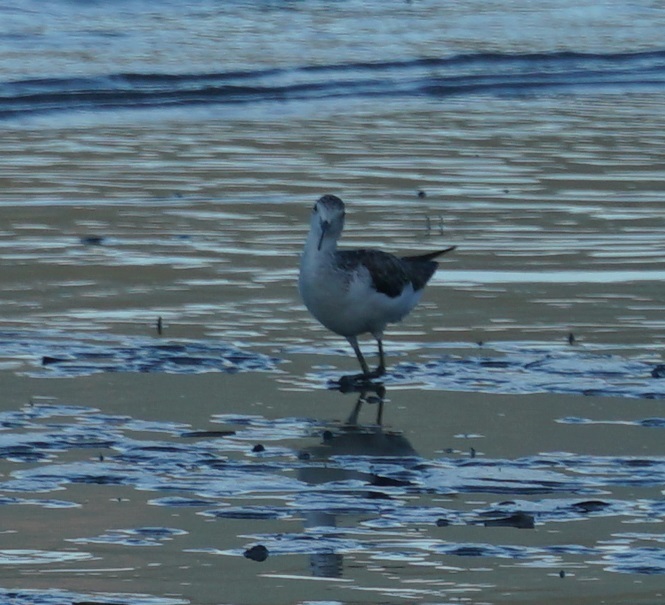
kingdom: Animalia
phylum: Chordata
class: Aves
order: Charadriiformes
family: Scolopacidae
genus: Tringa
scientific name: Tringa nebularia
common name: Common greenshank
